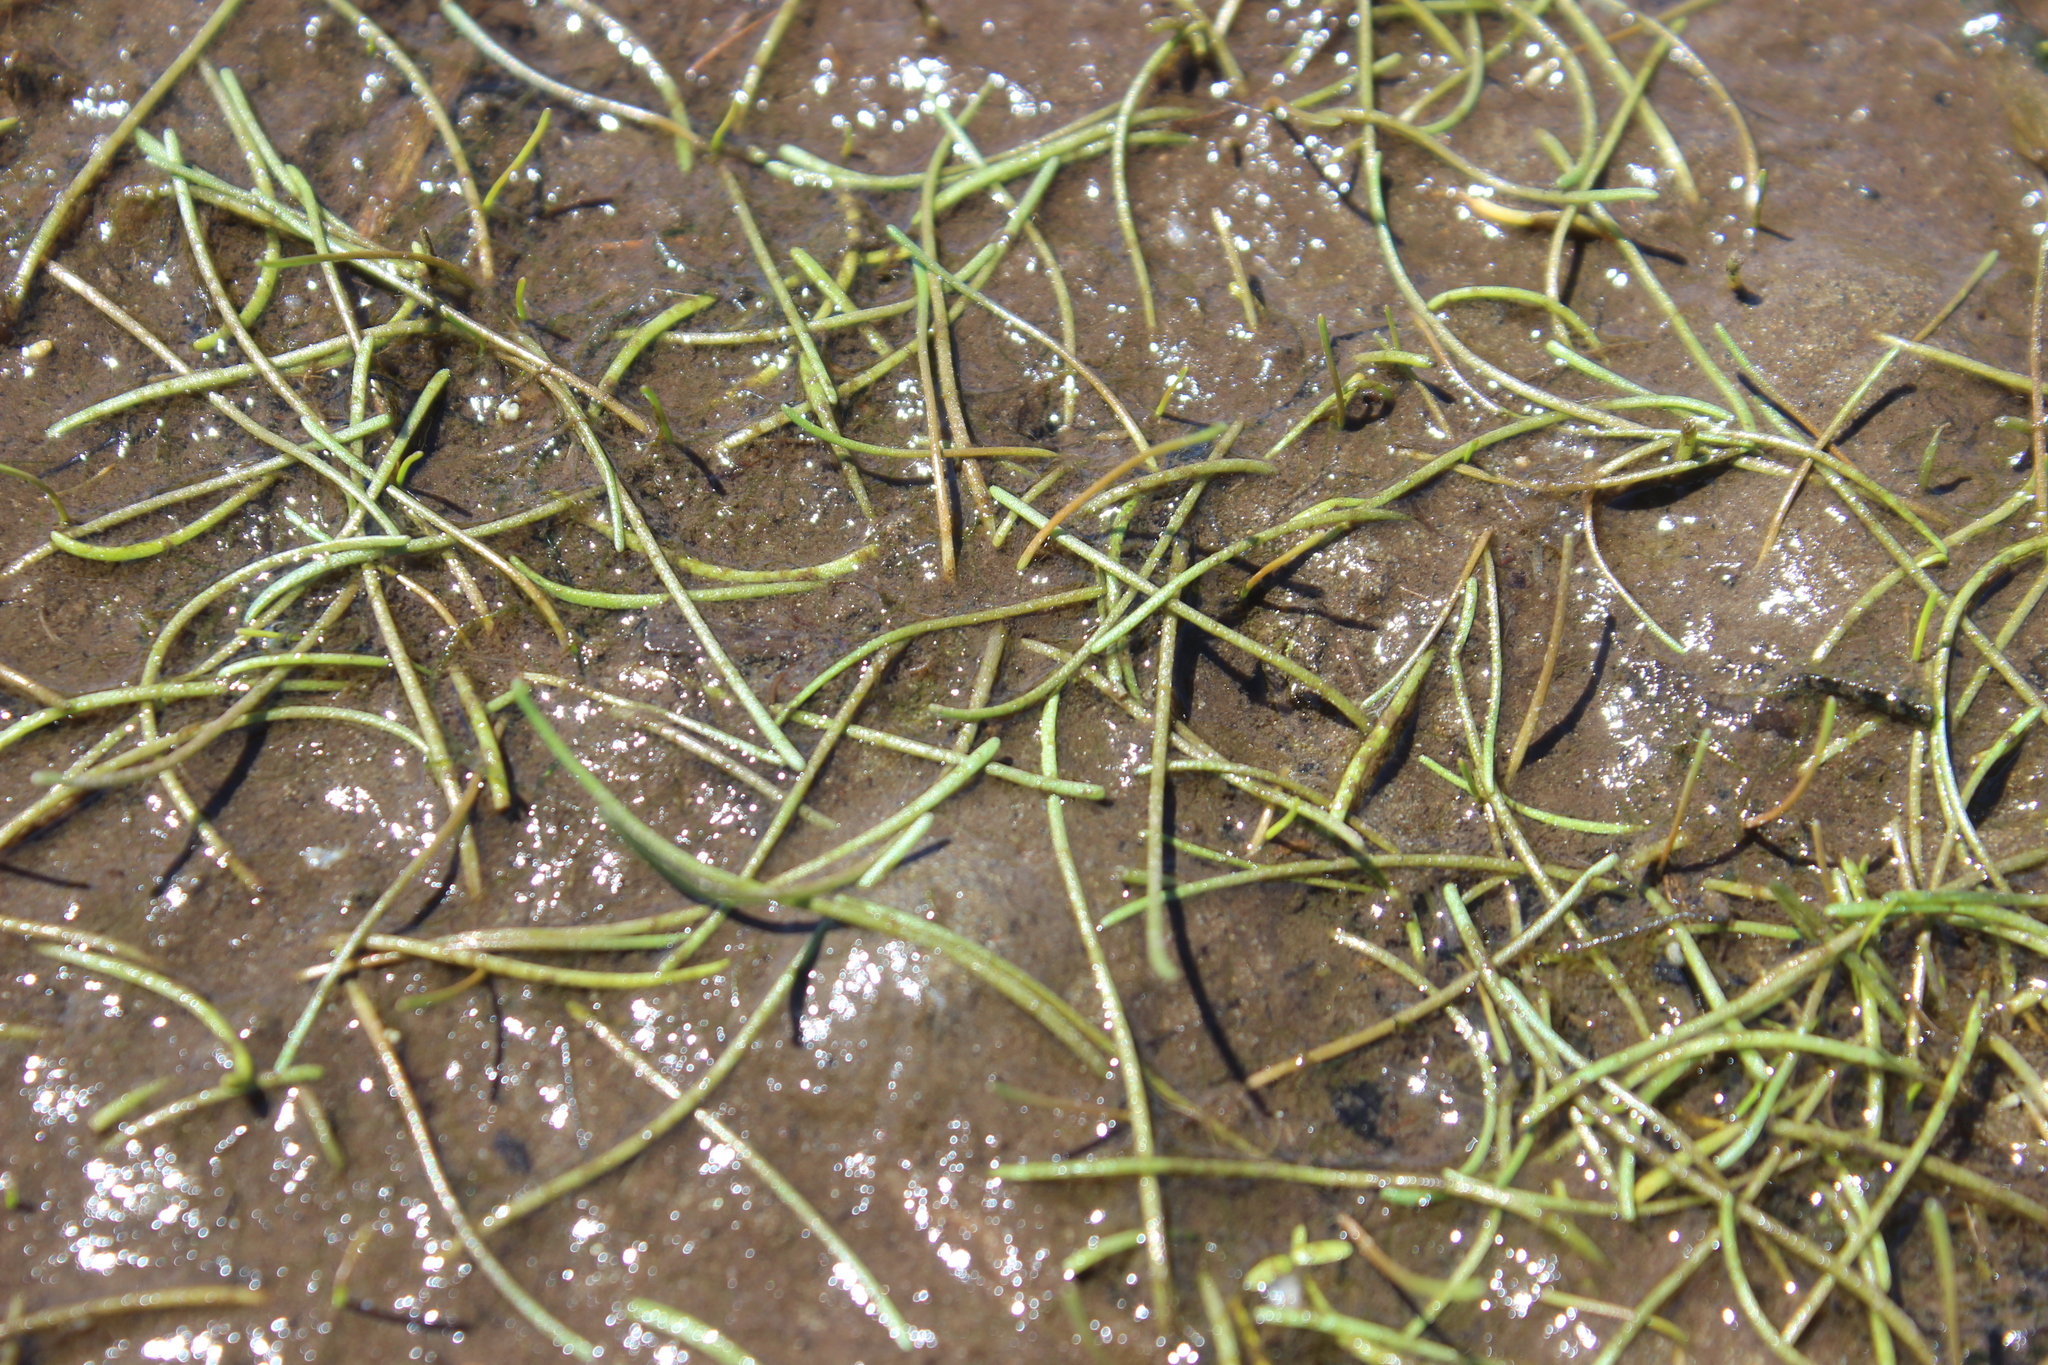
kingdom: Plantae
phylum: Tracheophyta
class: Magnoliopsida
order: Apiales
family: Apiaceae
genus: Lilaeopsis
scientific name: Lilaeopsis novae-zelandiae
